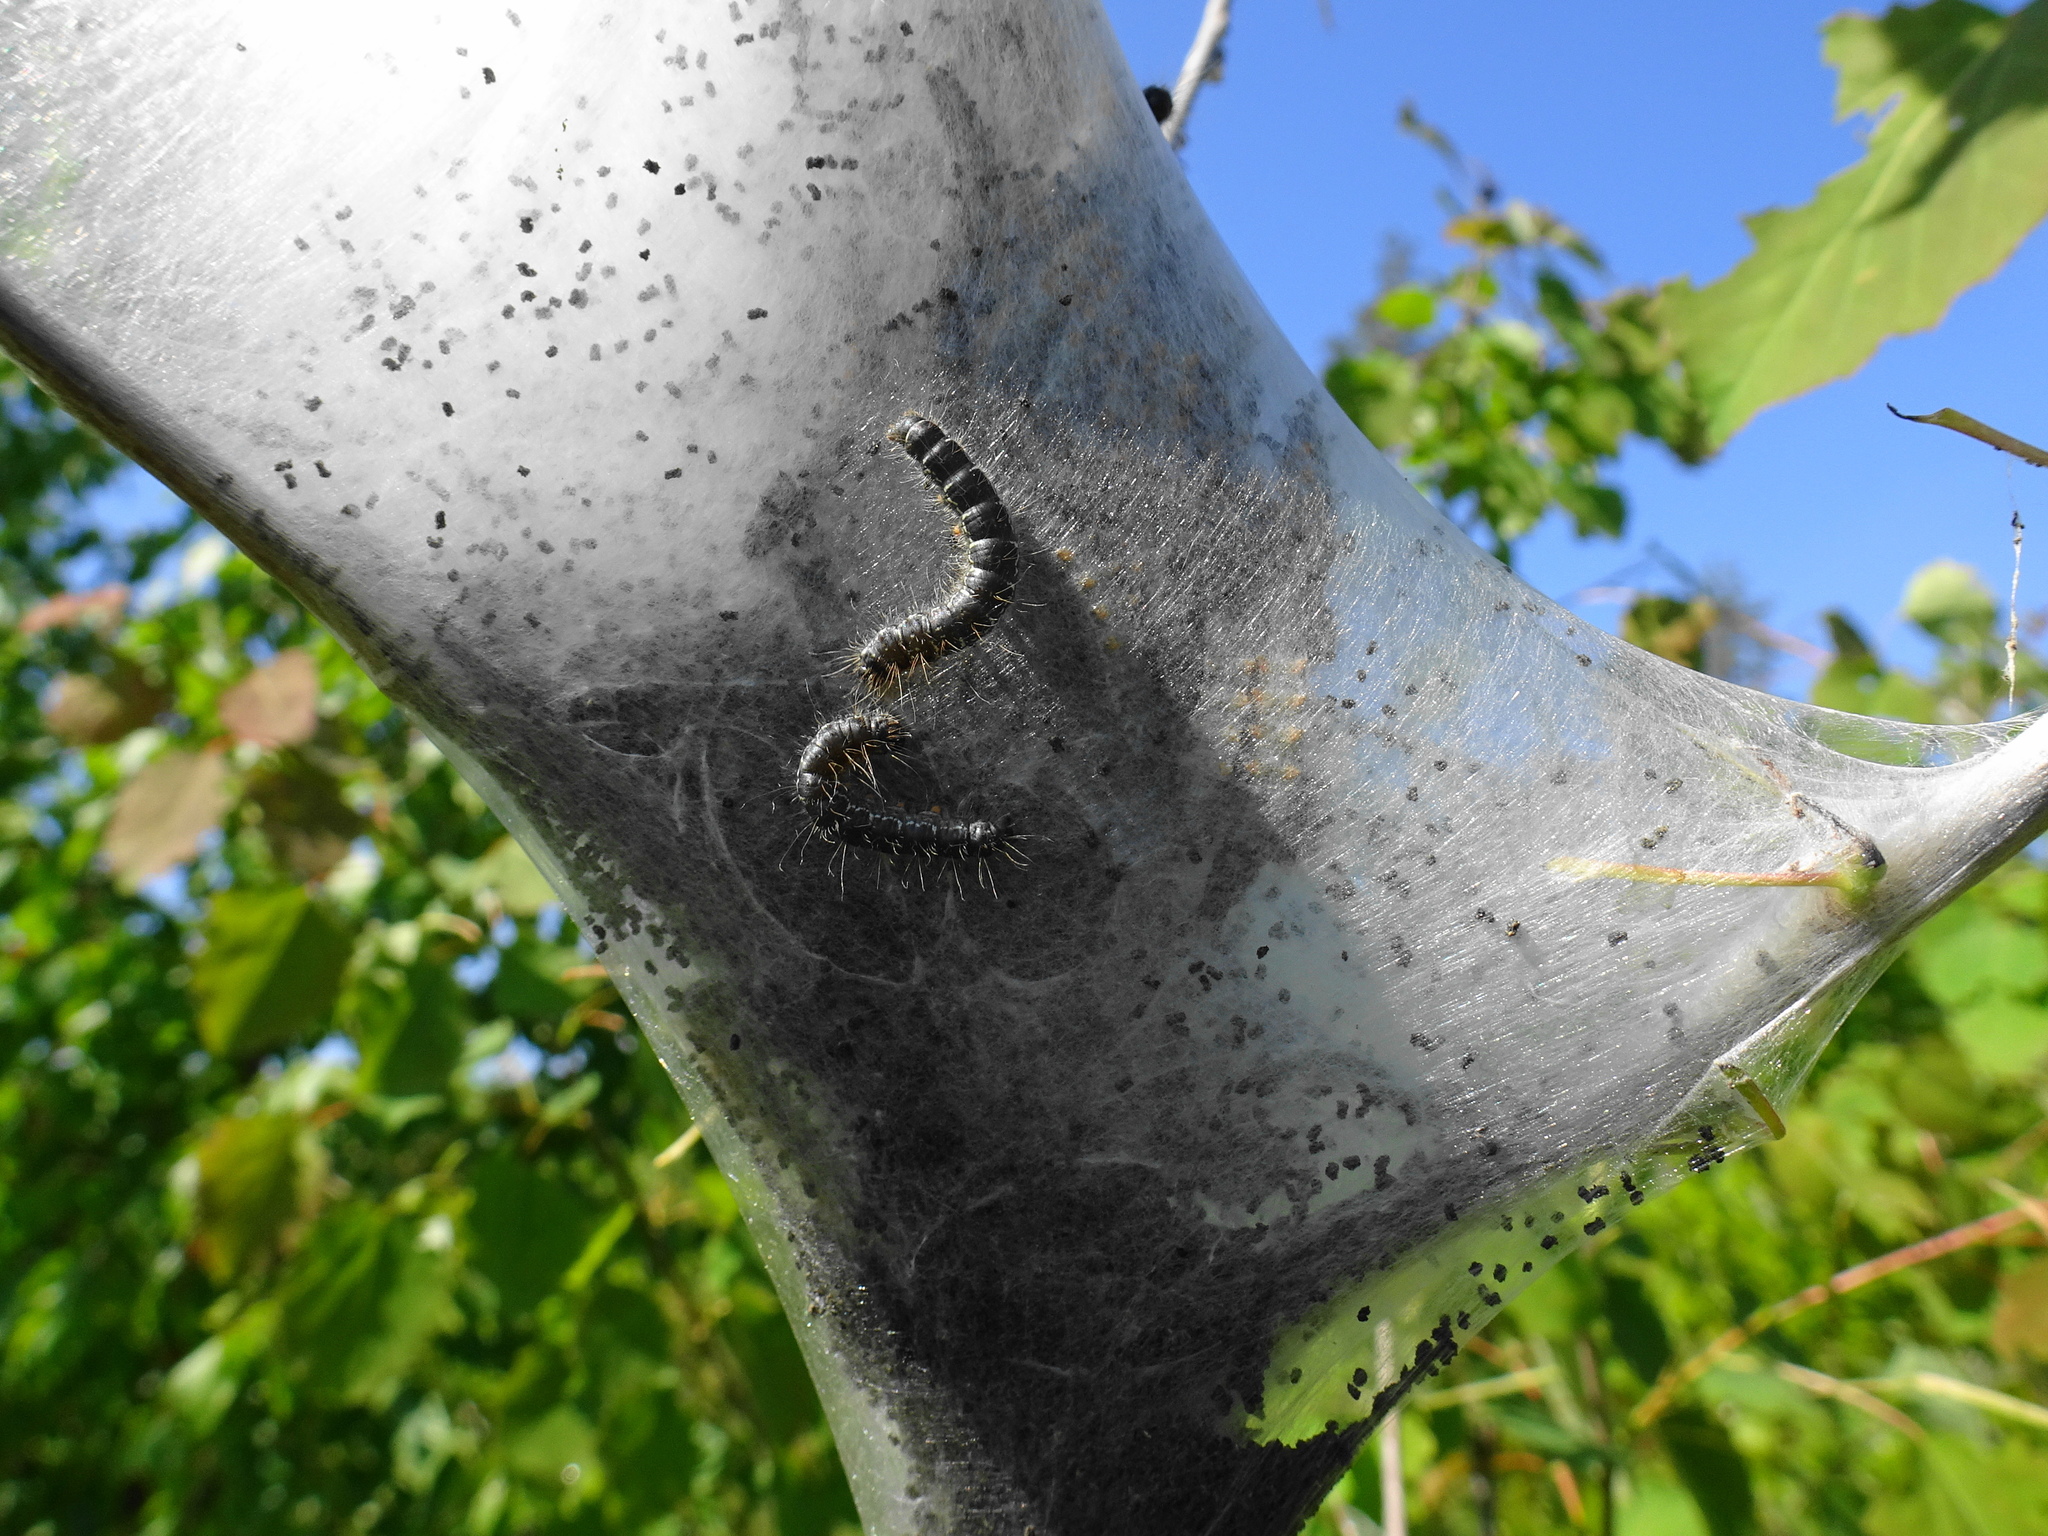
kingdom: Animalia
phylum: Arthropoda
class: Insecta
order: Lepidoptera
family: Lasiocampidae
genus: Eriogaster
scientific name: Eriogaster lanestris
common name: Small eggar
